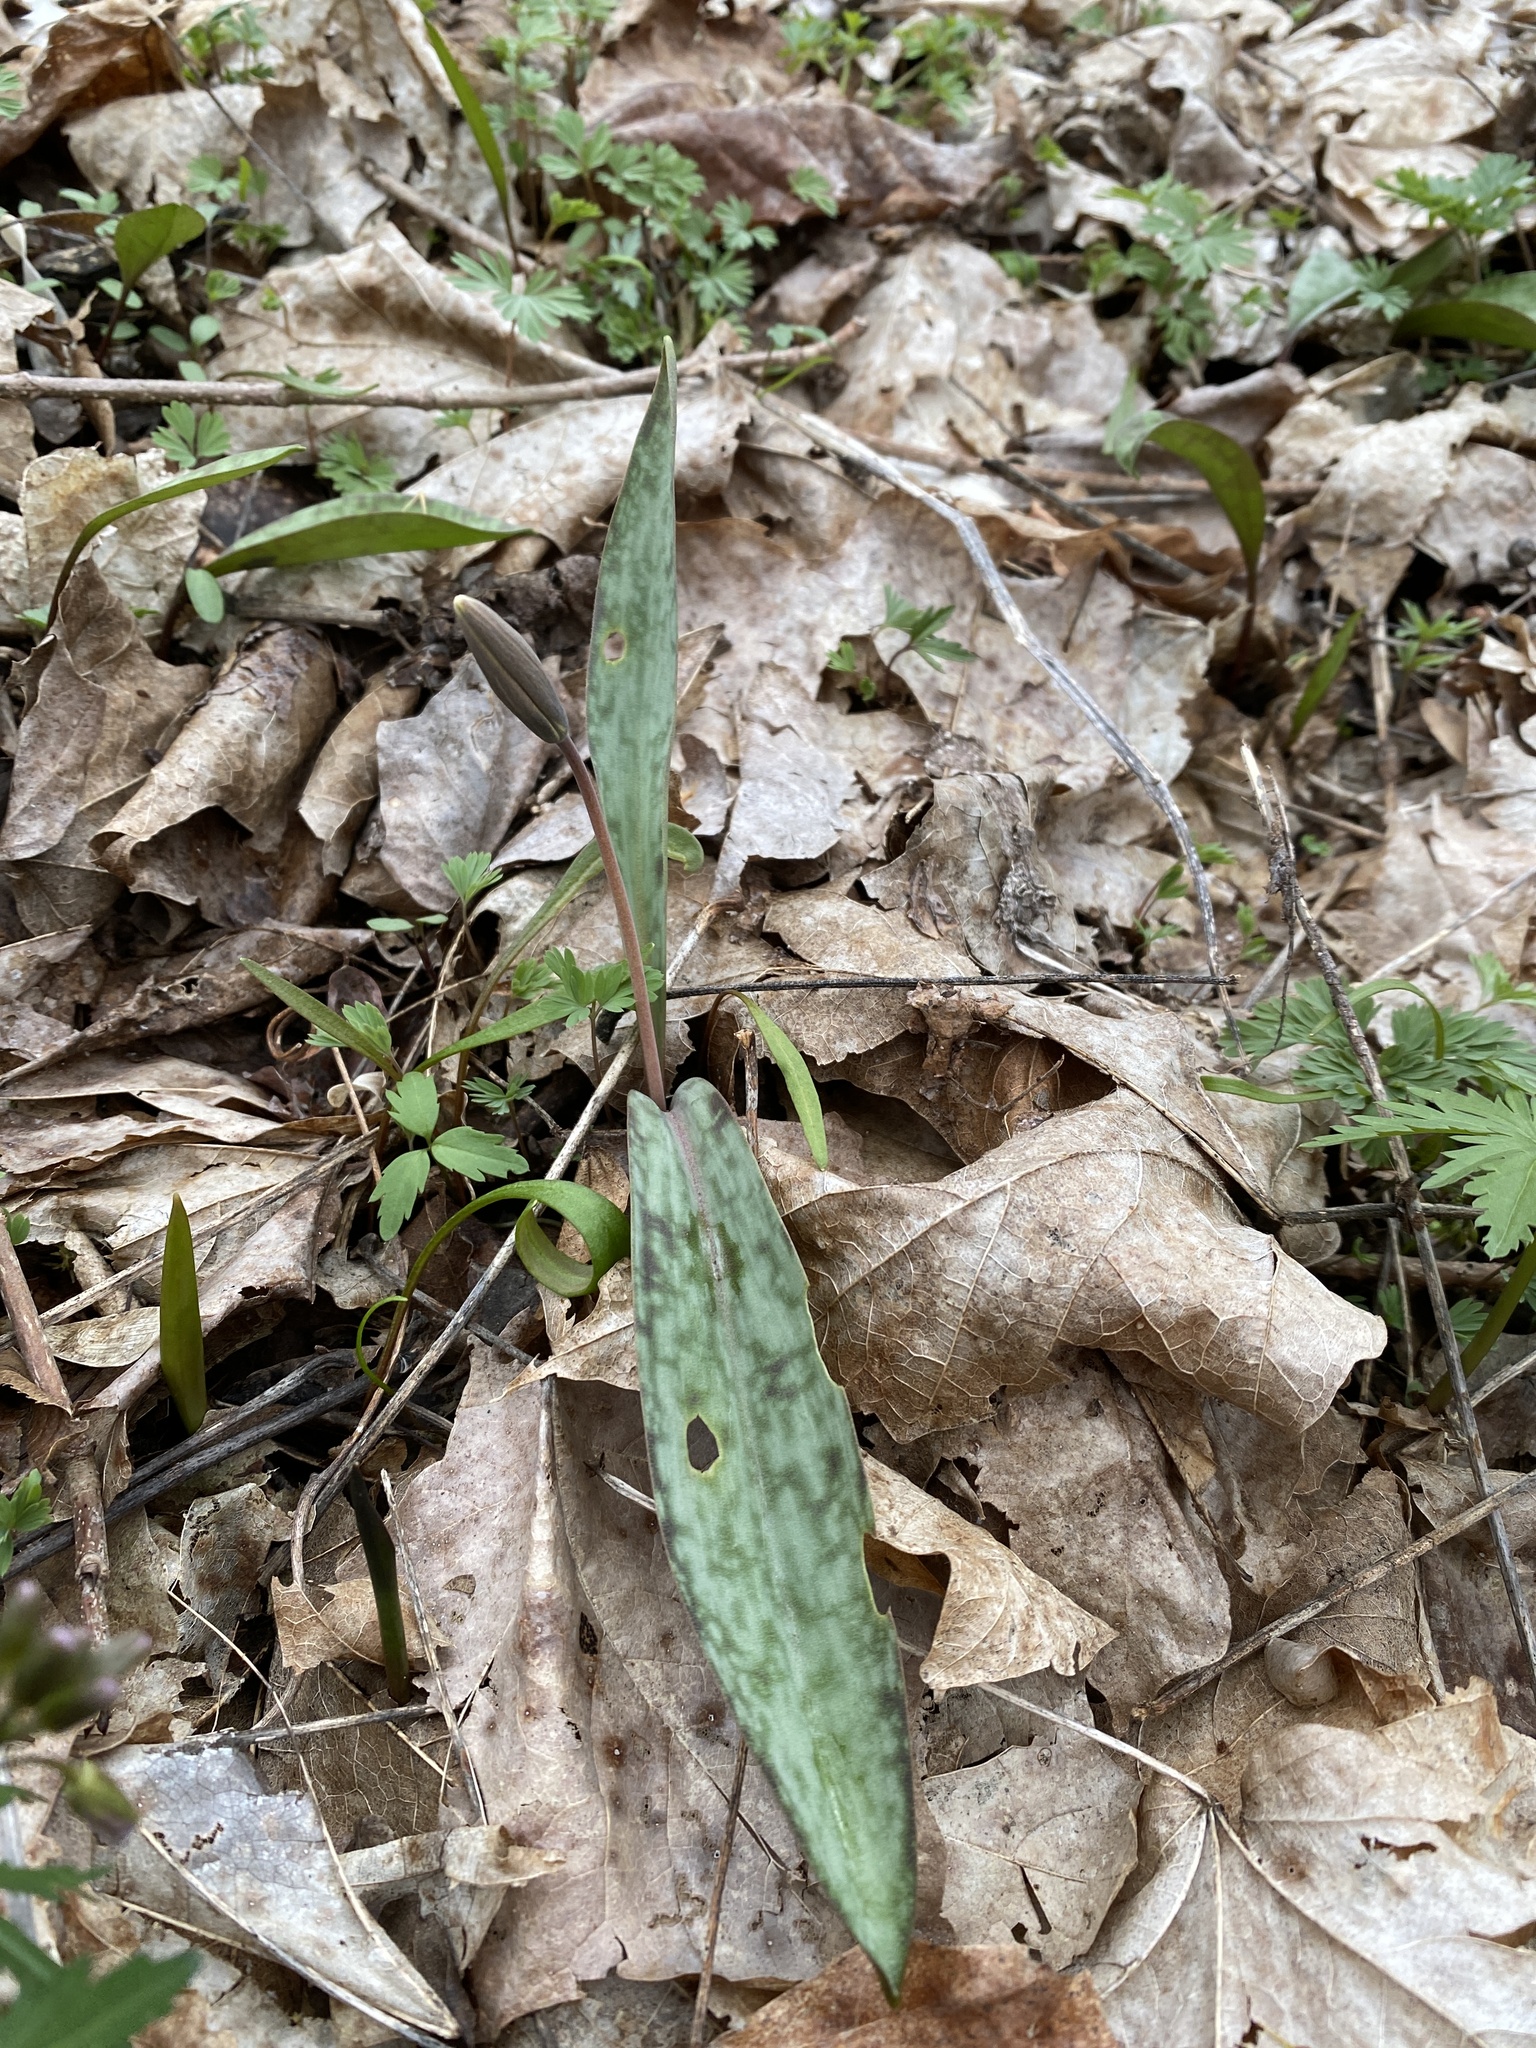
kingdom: Plantae
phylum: Tracheophyta
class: Liliopsida
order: Liliales
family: Liliaceae
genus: Erythronium
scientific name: Erythronium americanum
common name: Yellow adder's-tongue
